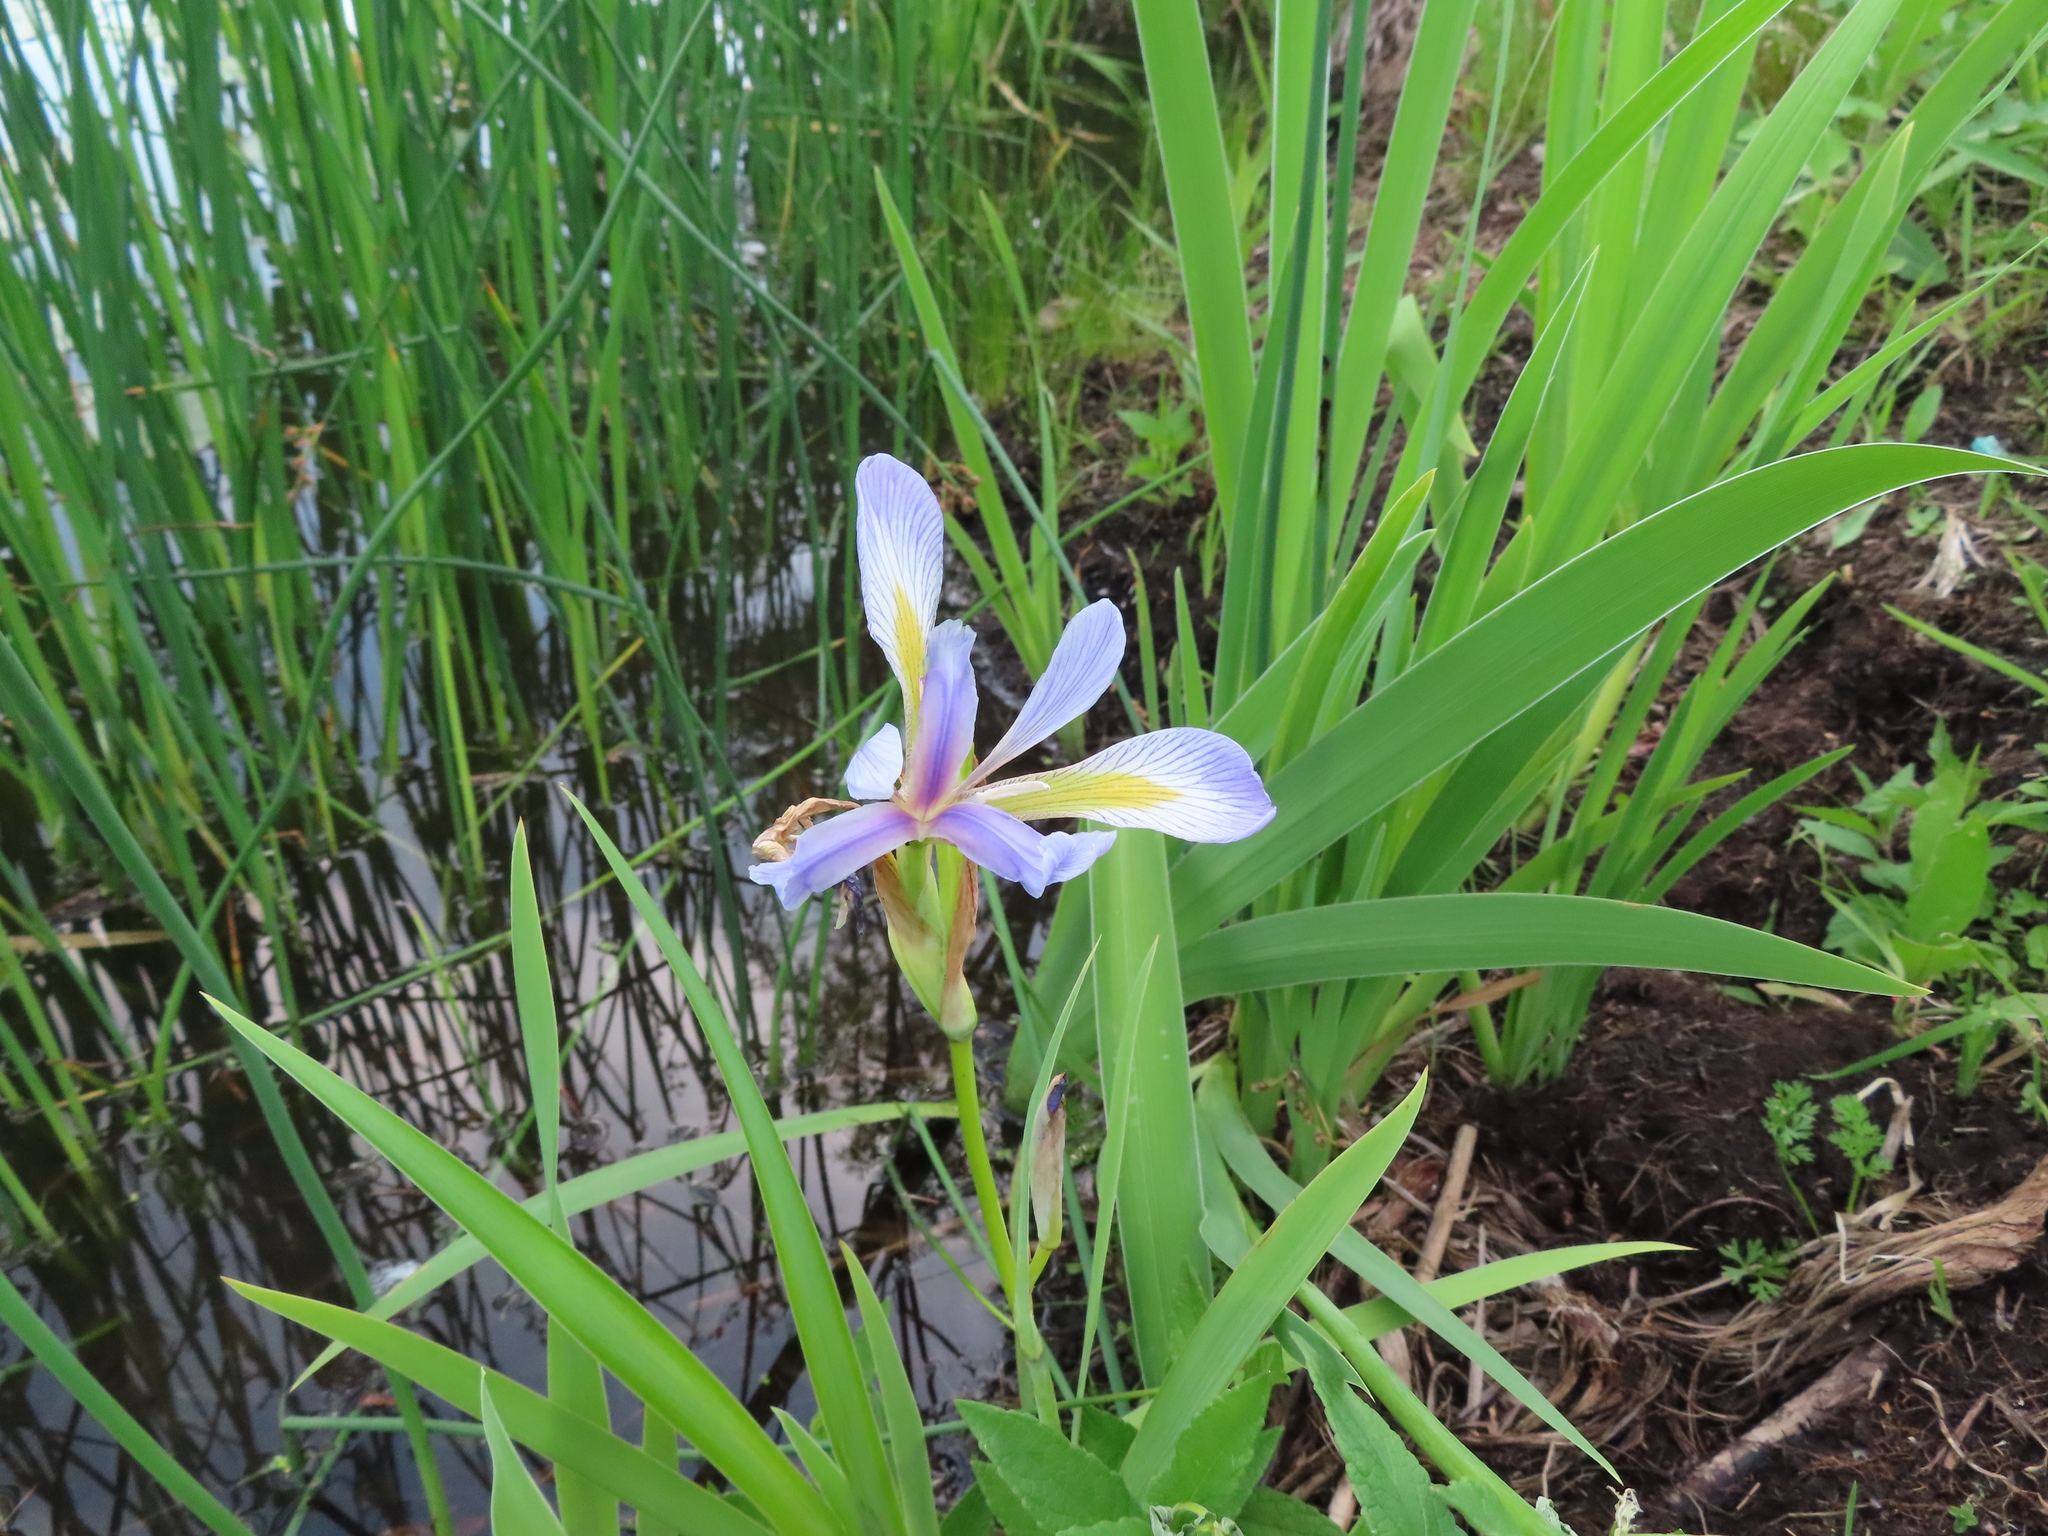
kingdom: Plantae
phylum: Tracheophyta
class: Liliopsida
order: Asparagales
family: Iridaceae
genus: Iris
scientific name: Iris virginica
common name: Southern blue flag
